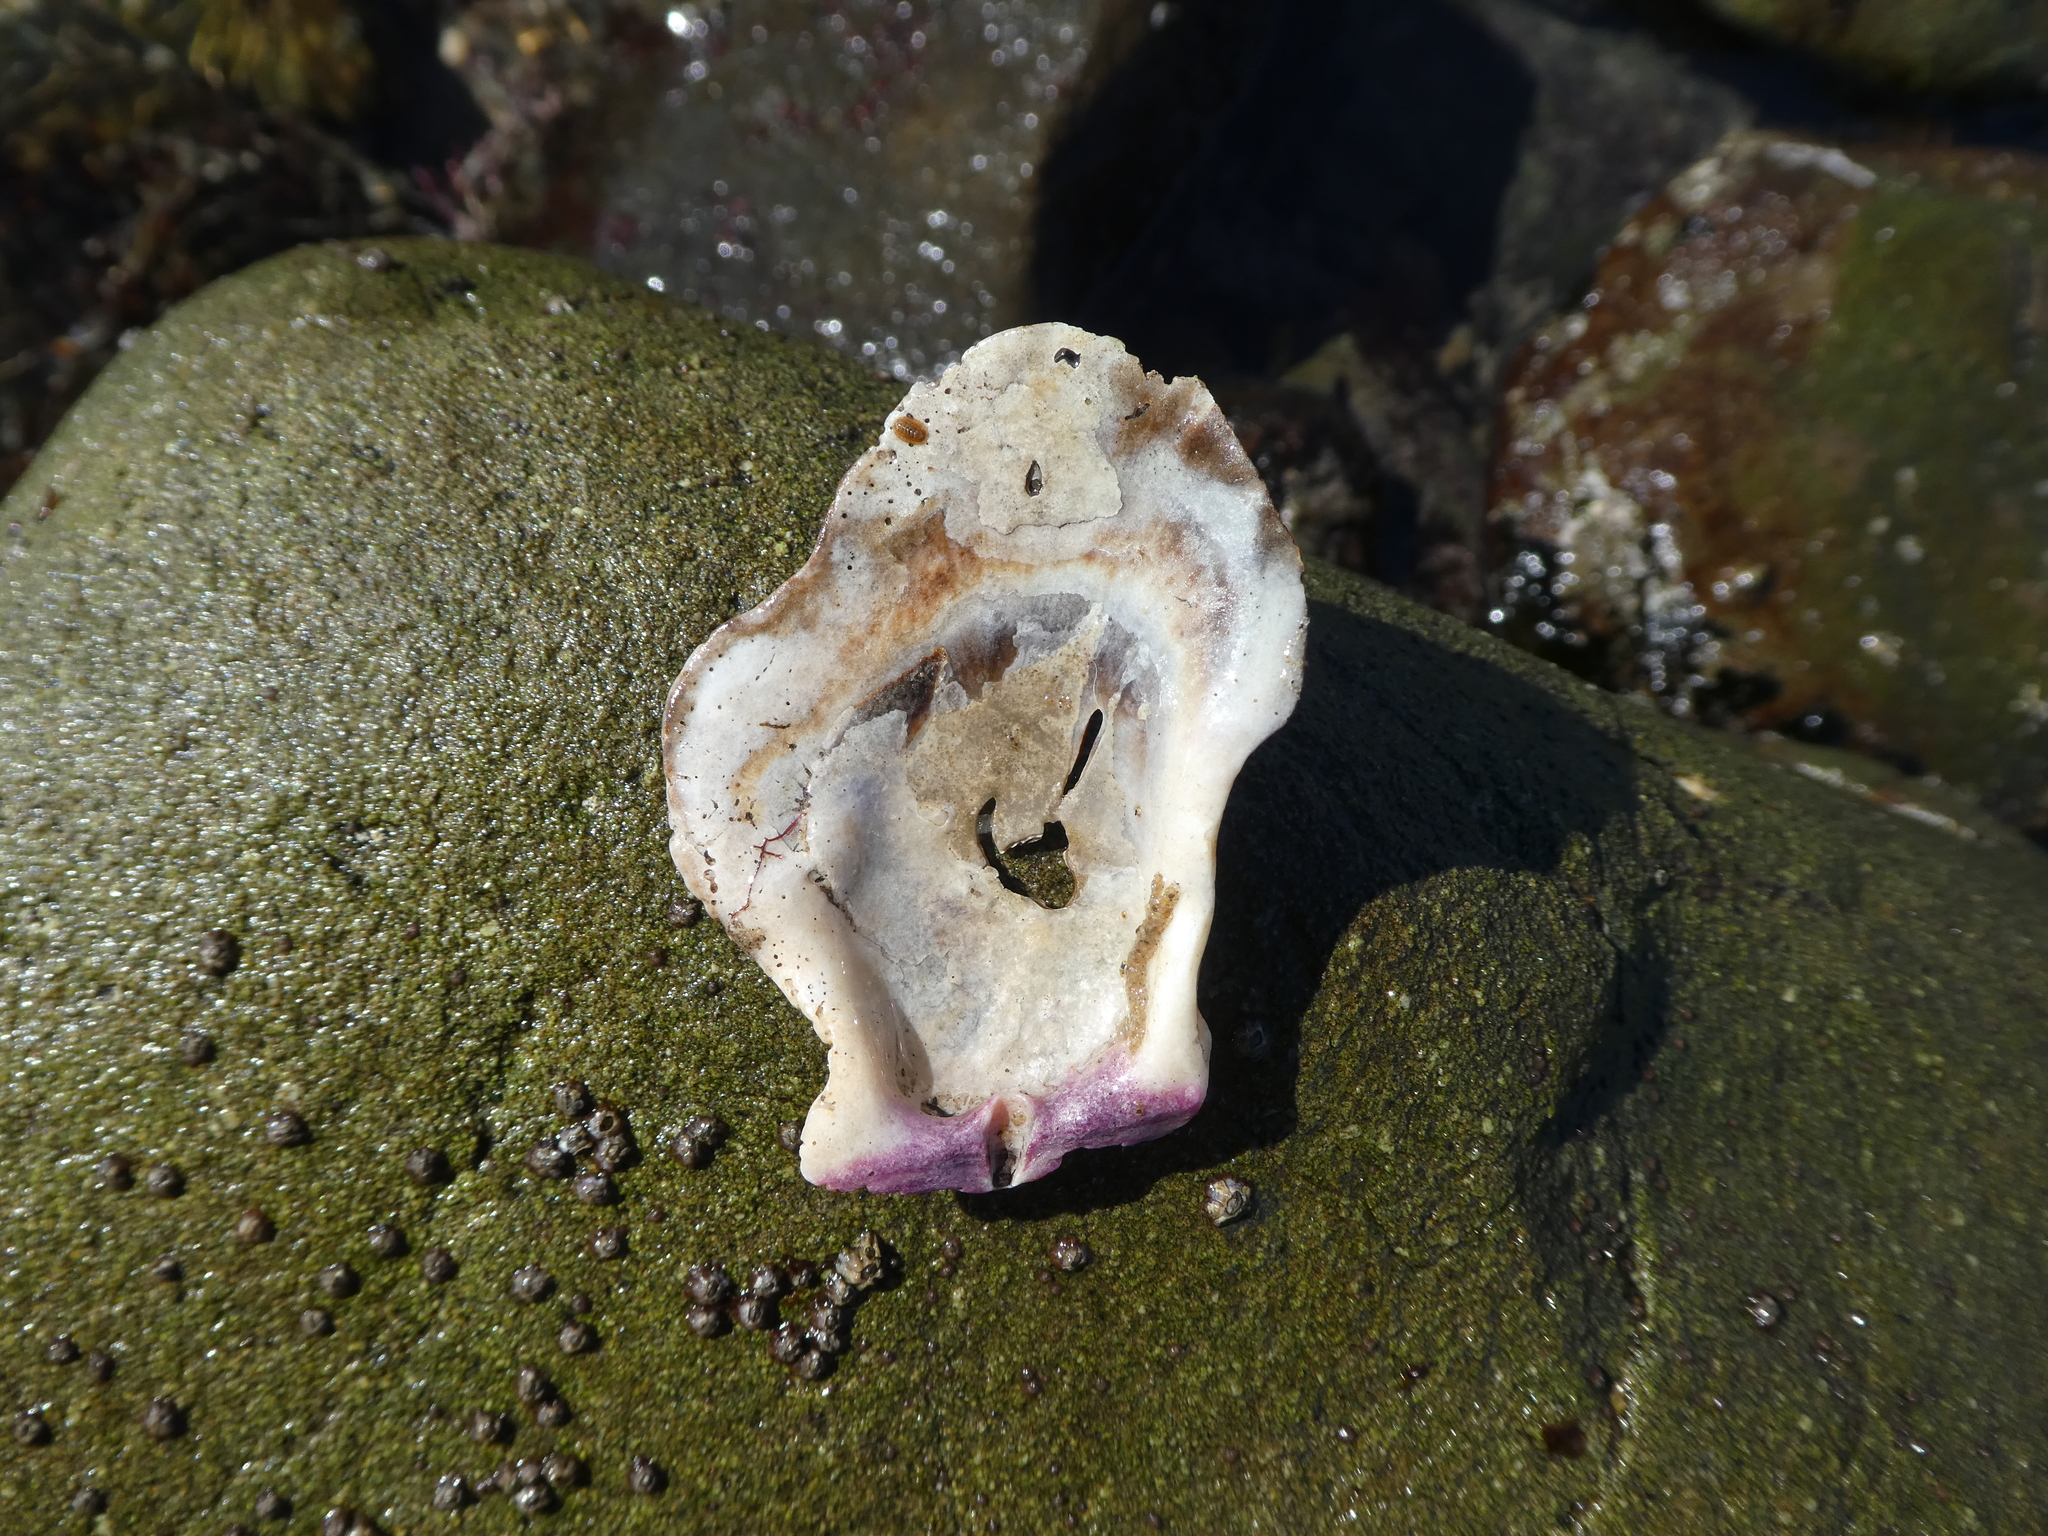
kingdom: Animalia
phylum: Mollusca
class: Bivalvia
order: Pectinida
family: Pectinidae
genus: Crassadoma
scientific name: Crassadoma gigantea
